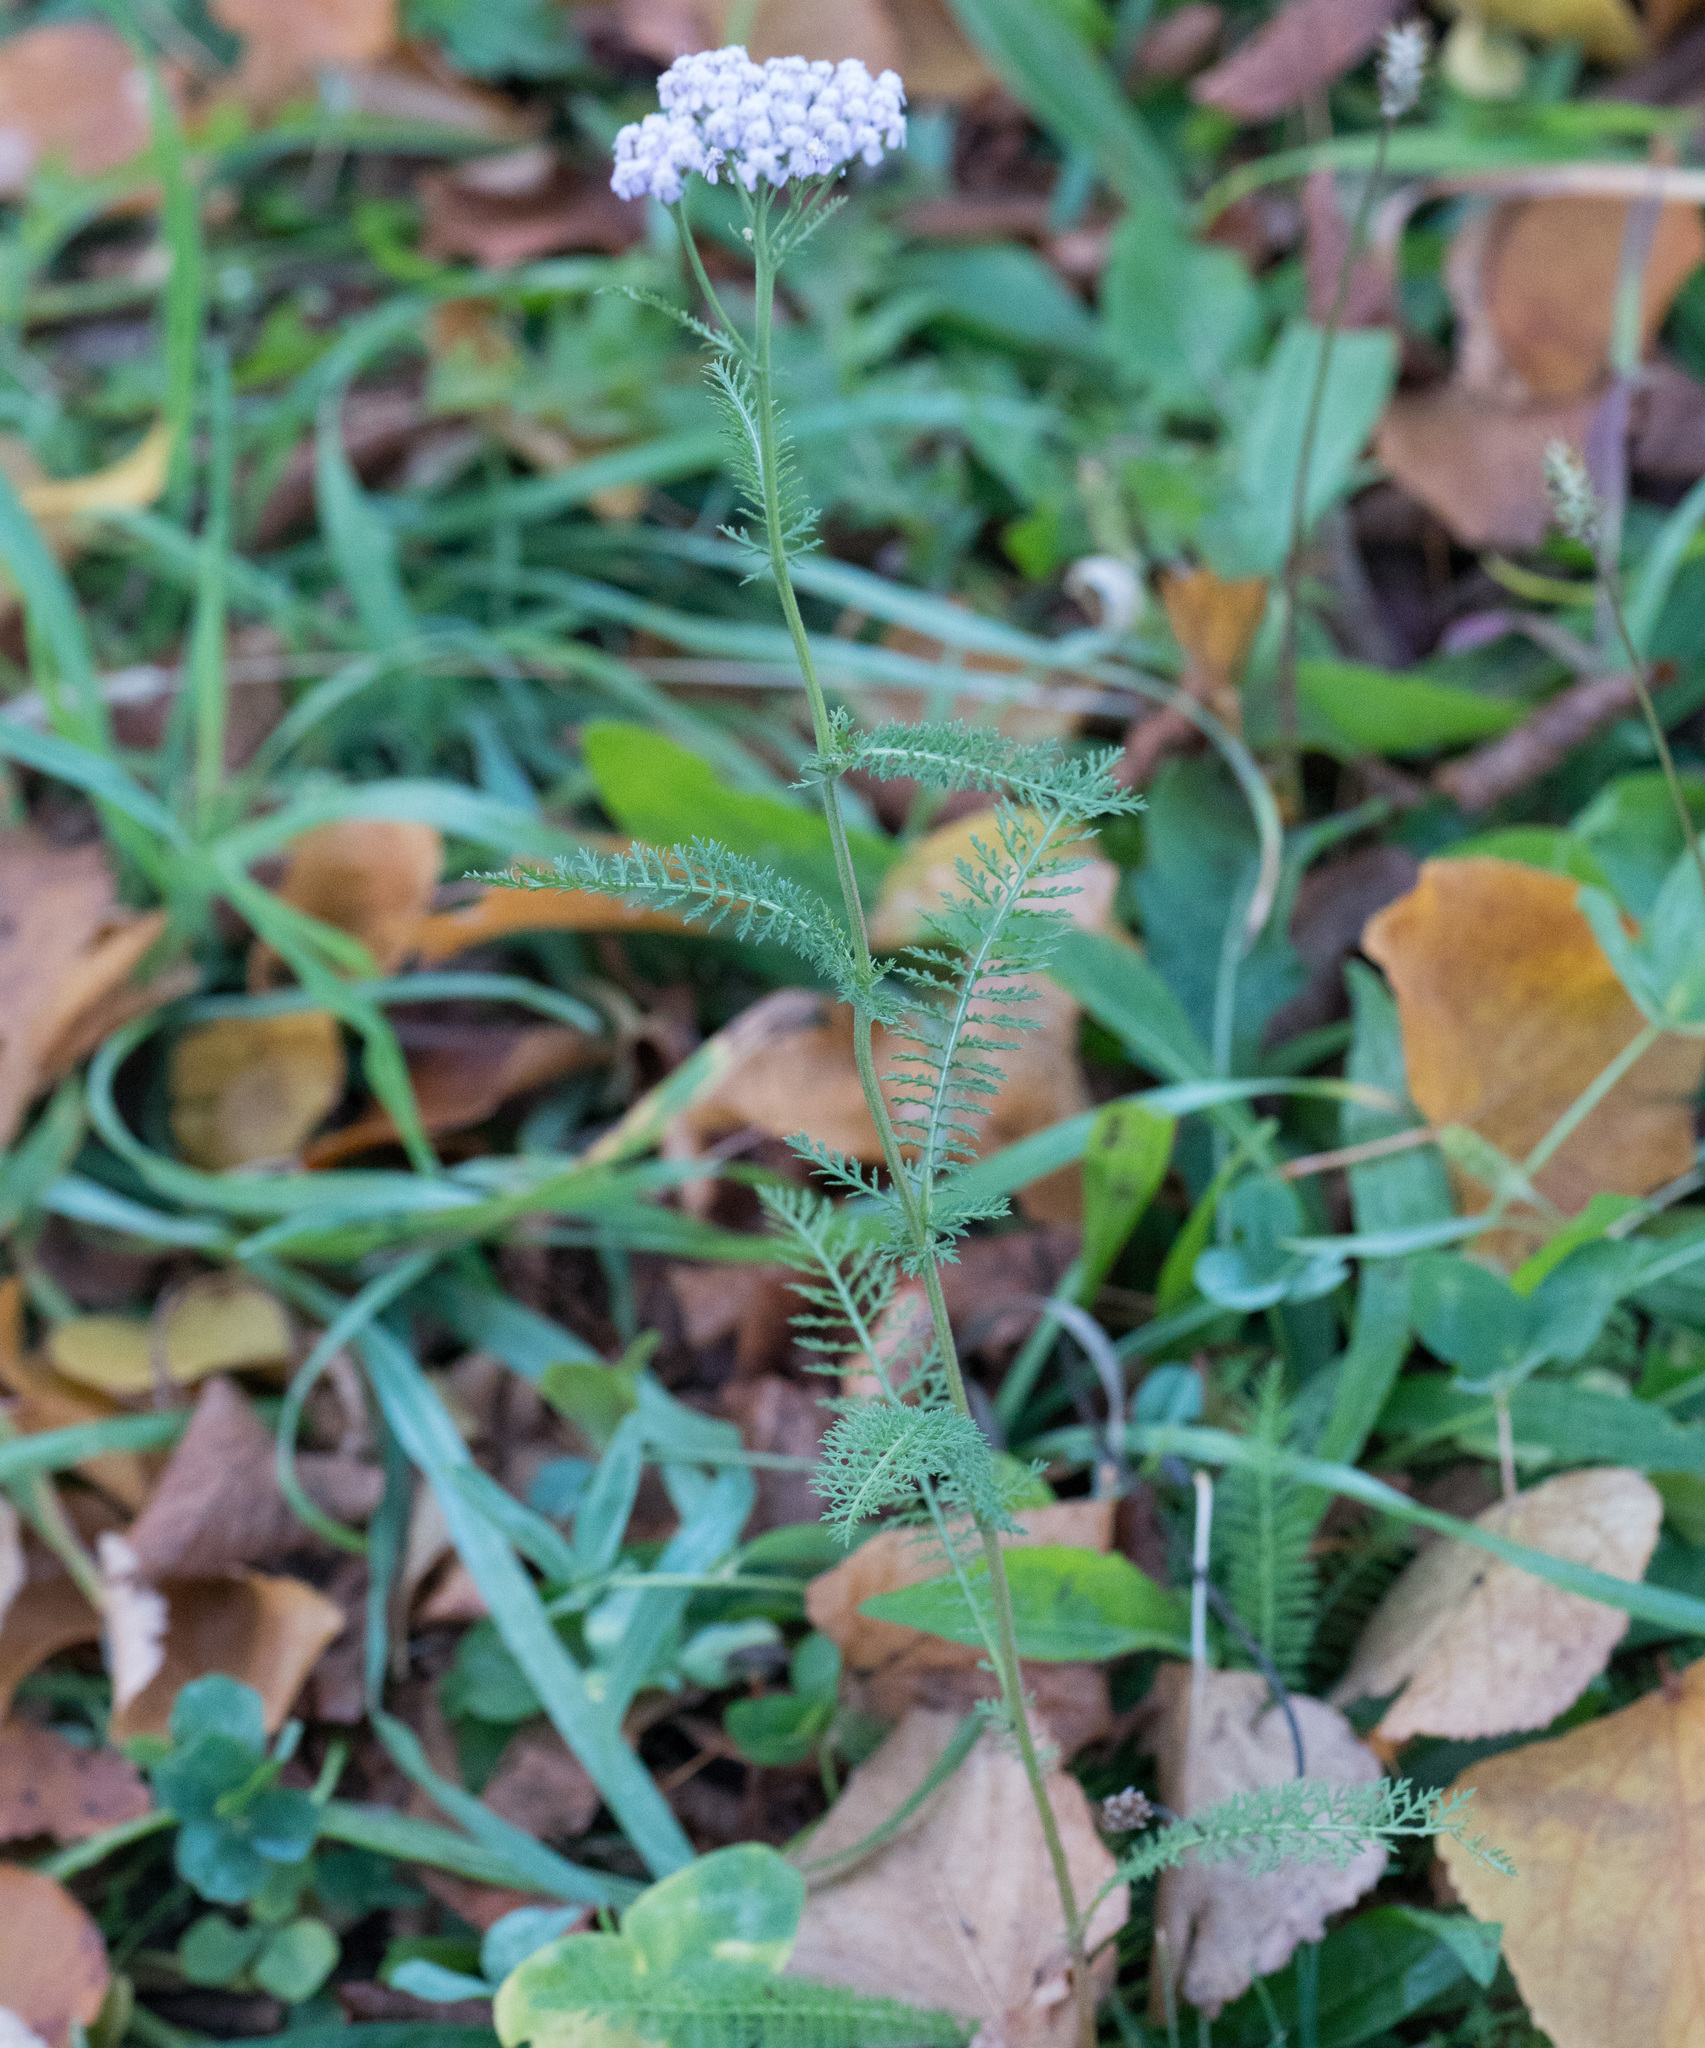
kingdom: Plantae
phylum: Tracheophyta
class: Magnoliopsida
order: Asterales
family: Asteraceae
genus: Achillea
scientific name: Achillea millefolium
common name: Yarrow
